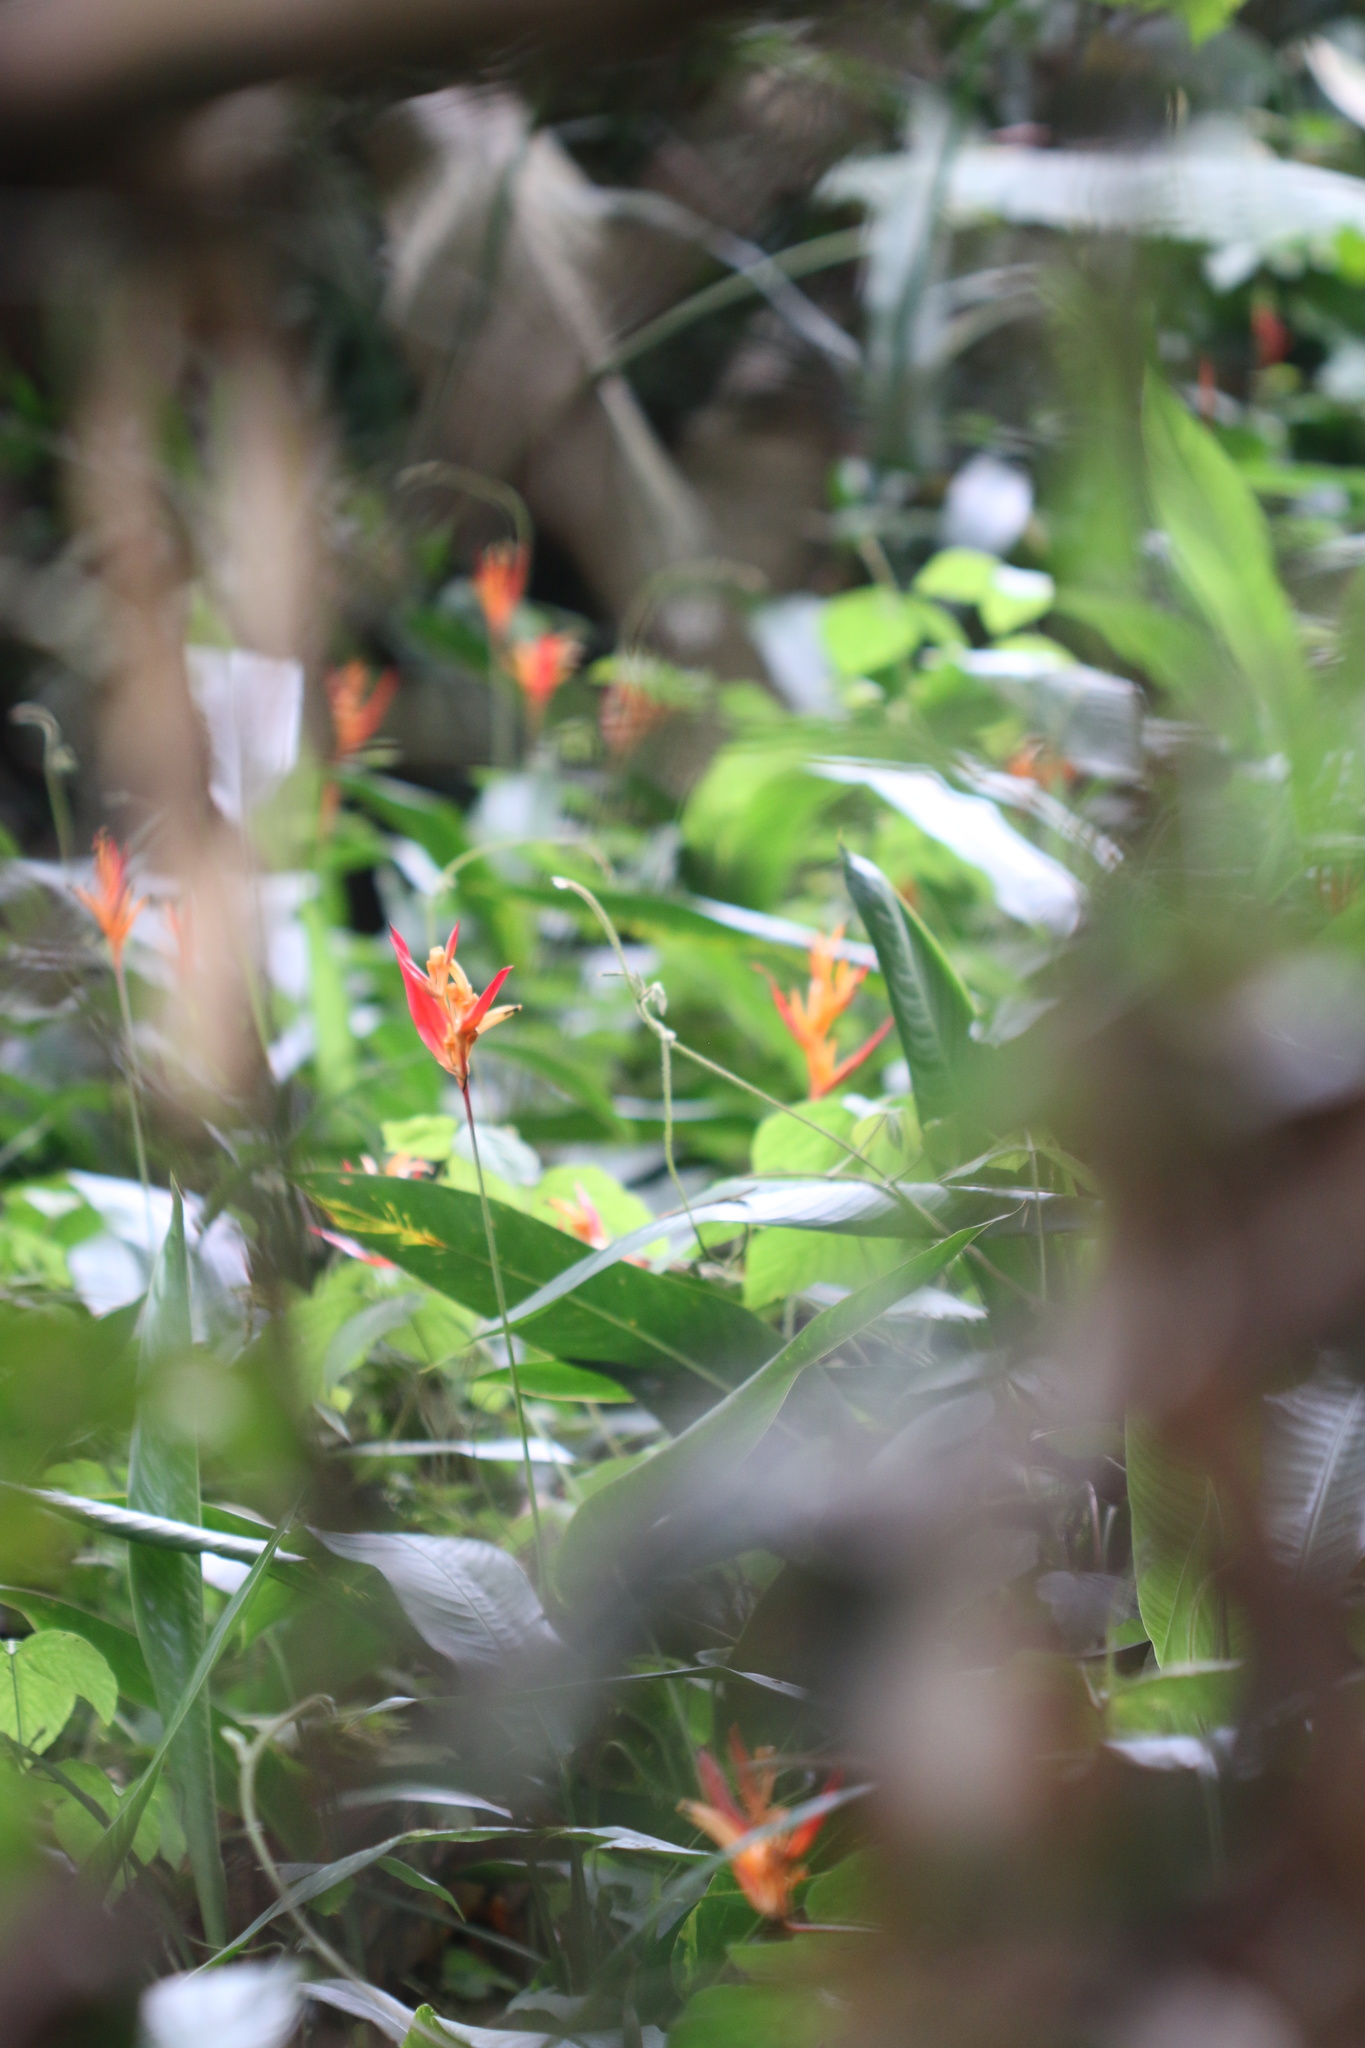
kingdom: Plantae
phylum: Tracheophyta
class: Liliopsida
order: Zingiberales
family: Heliconiaceae
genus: Heliconia
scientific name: Heliconia psittacorum
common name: Parrot's-flower
